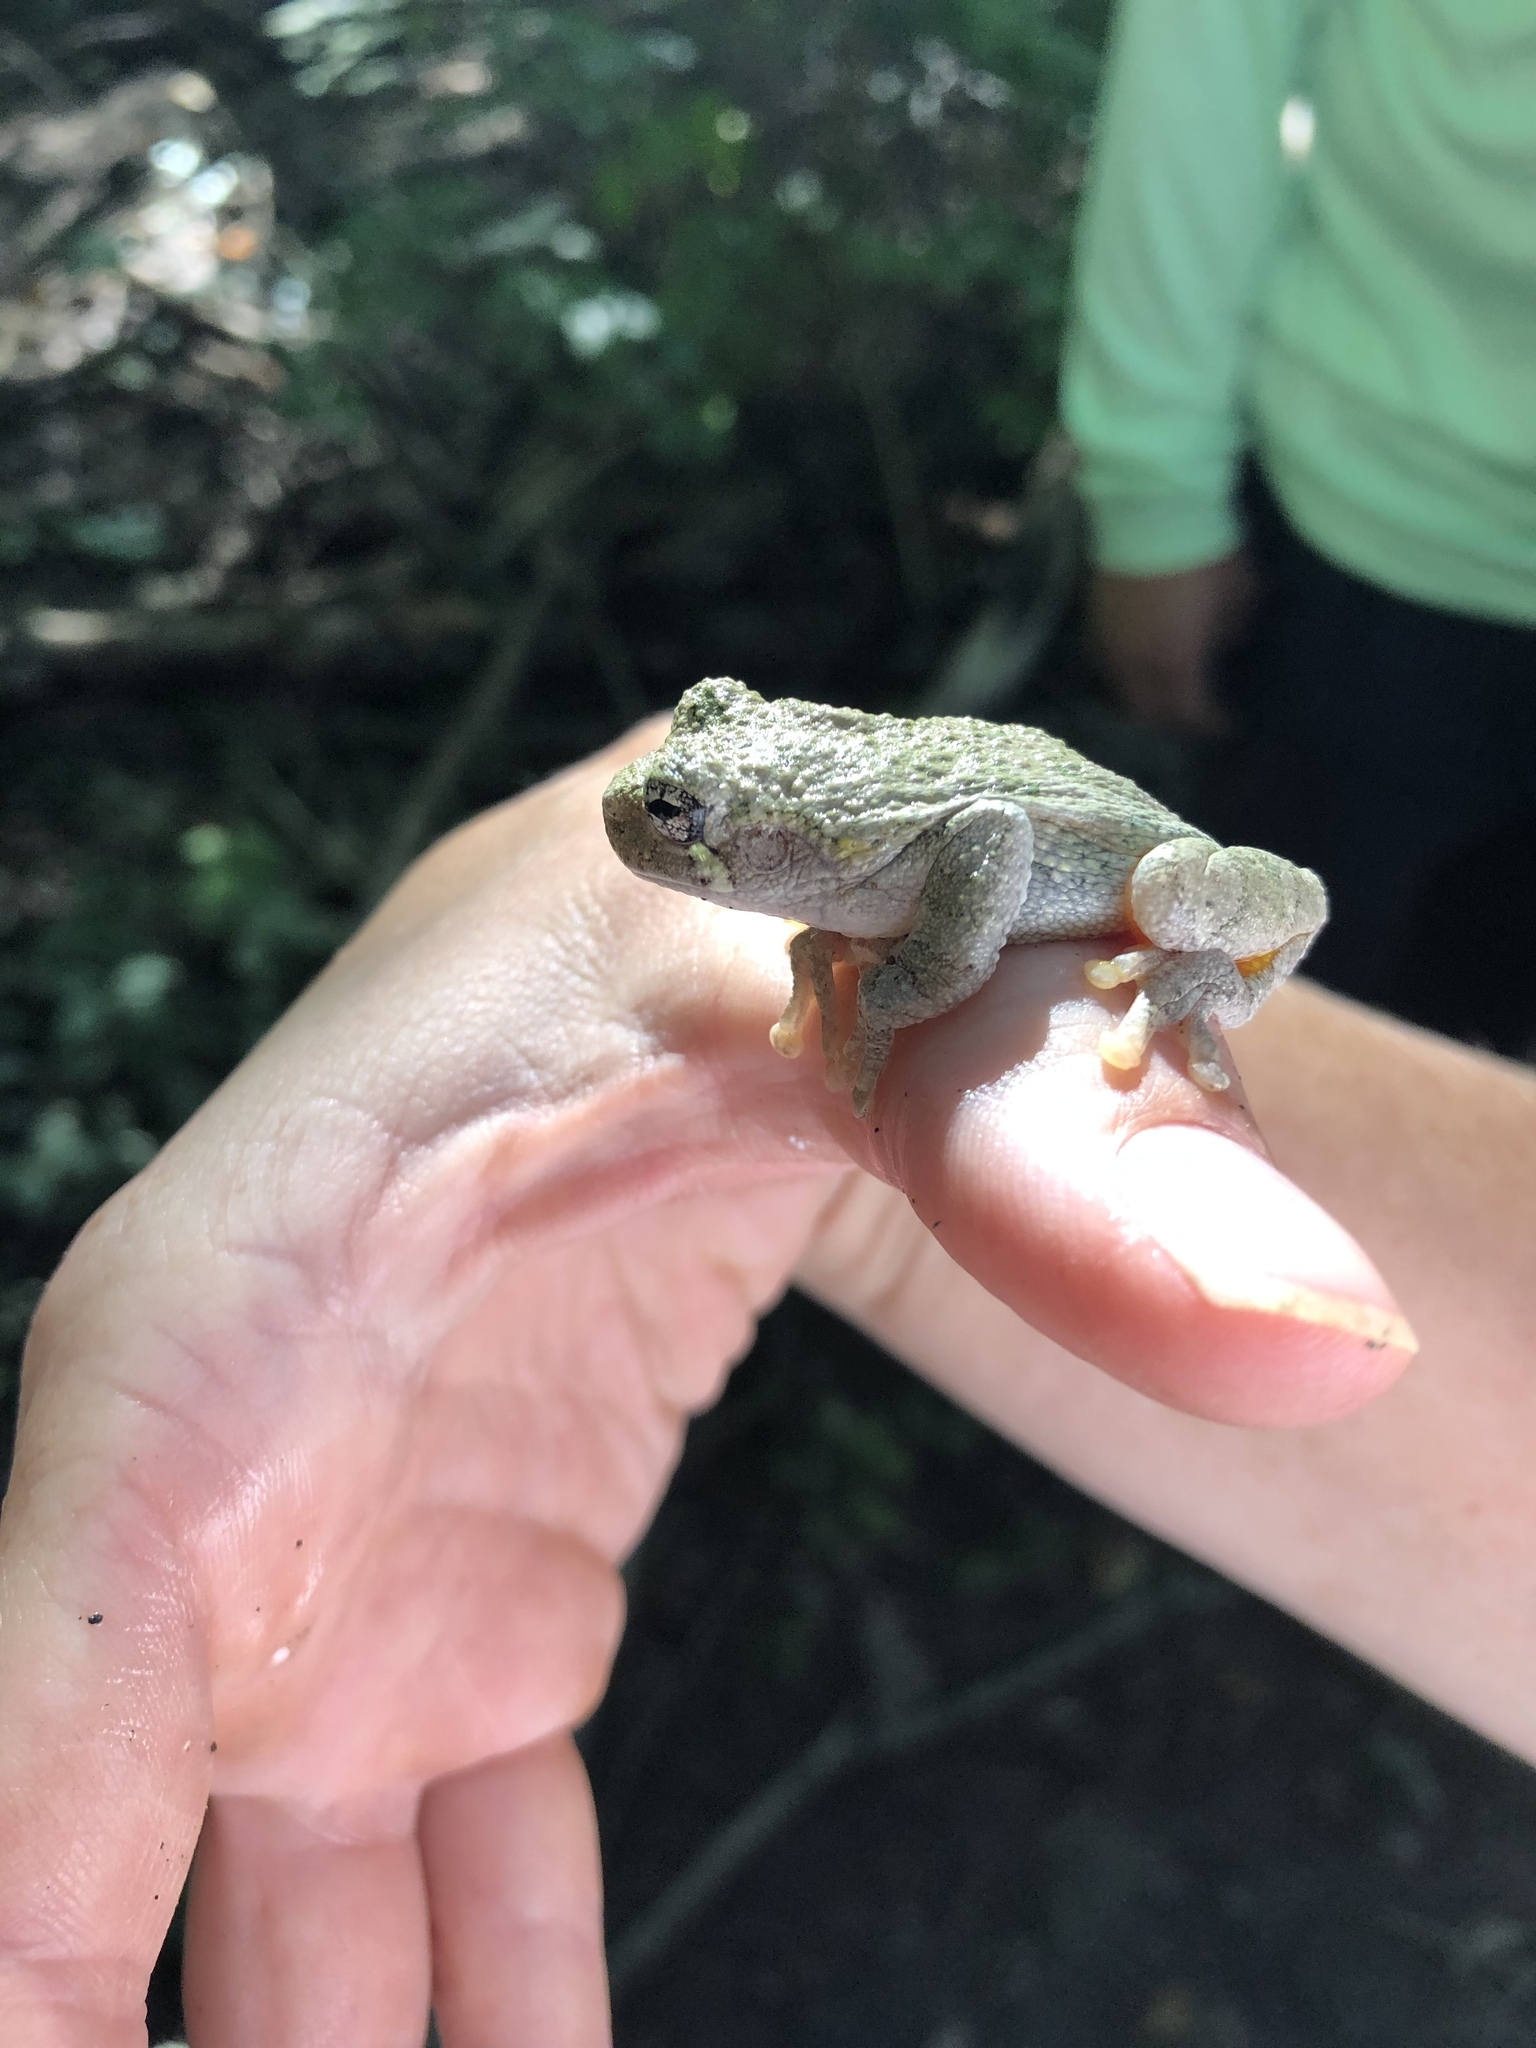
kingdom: Animalia
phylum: Chordata
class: Amphibia
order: Anura
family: Hylidae
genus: Hyla
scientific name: Hyla
